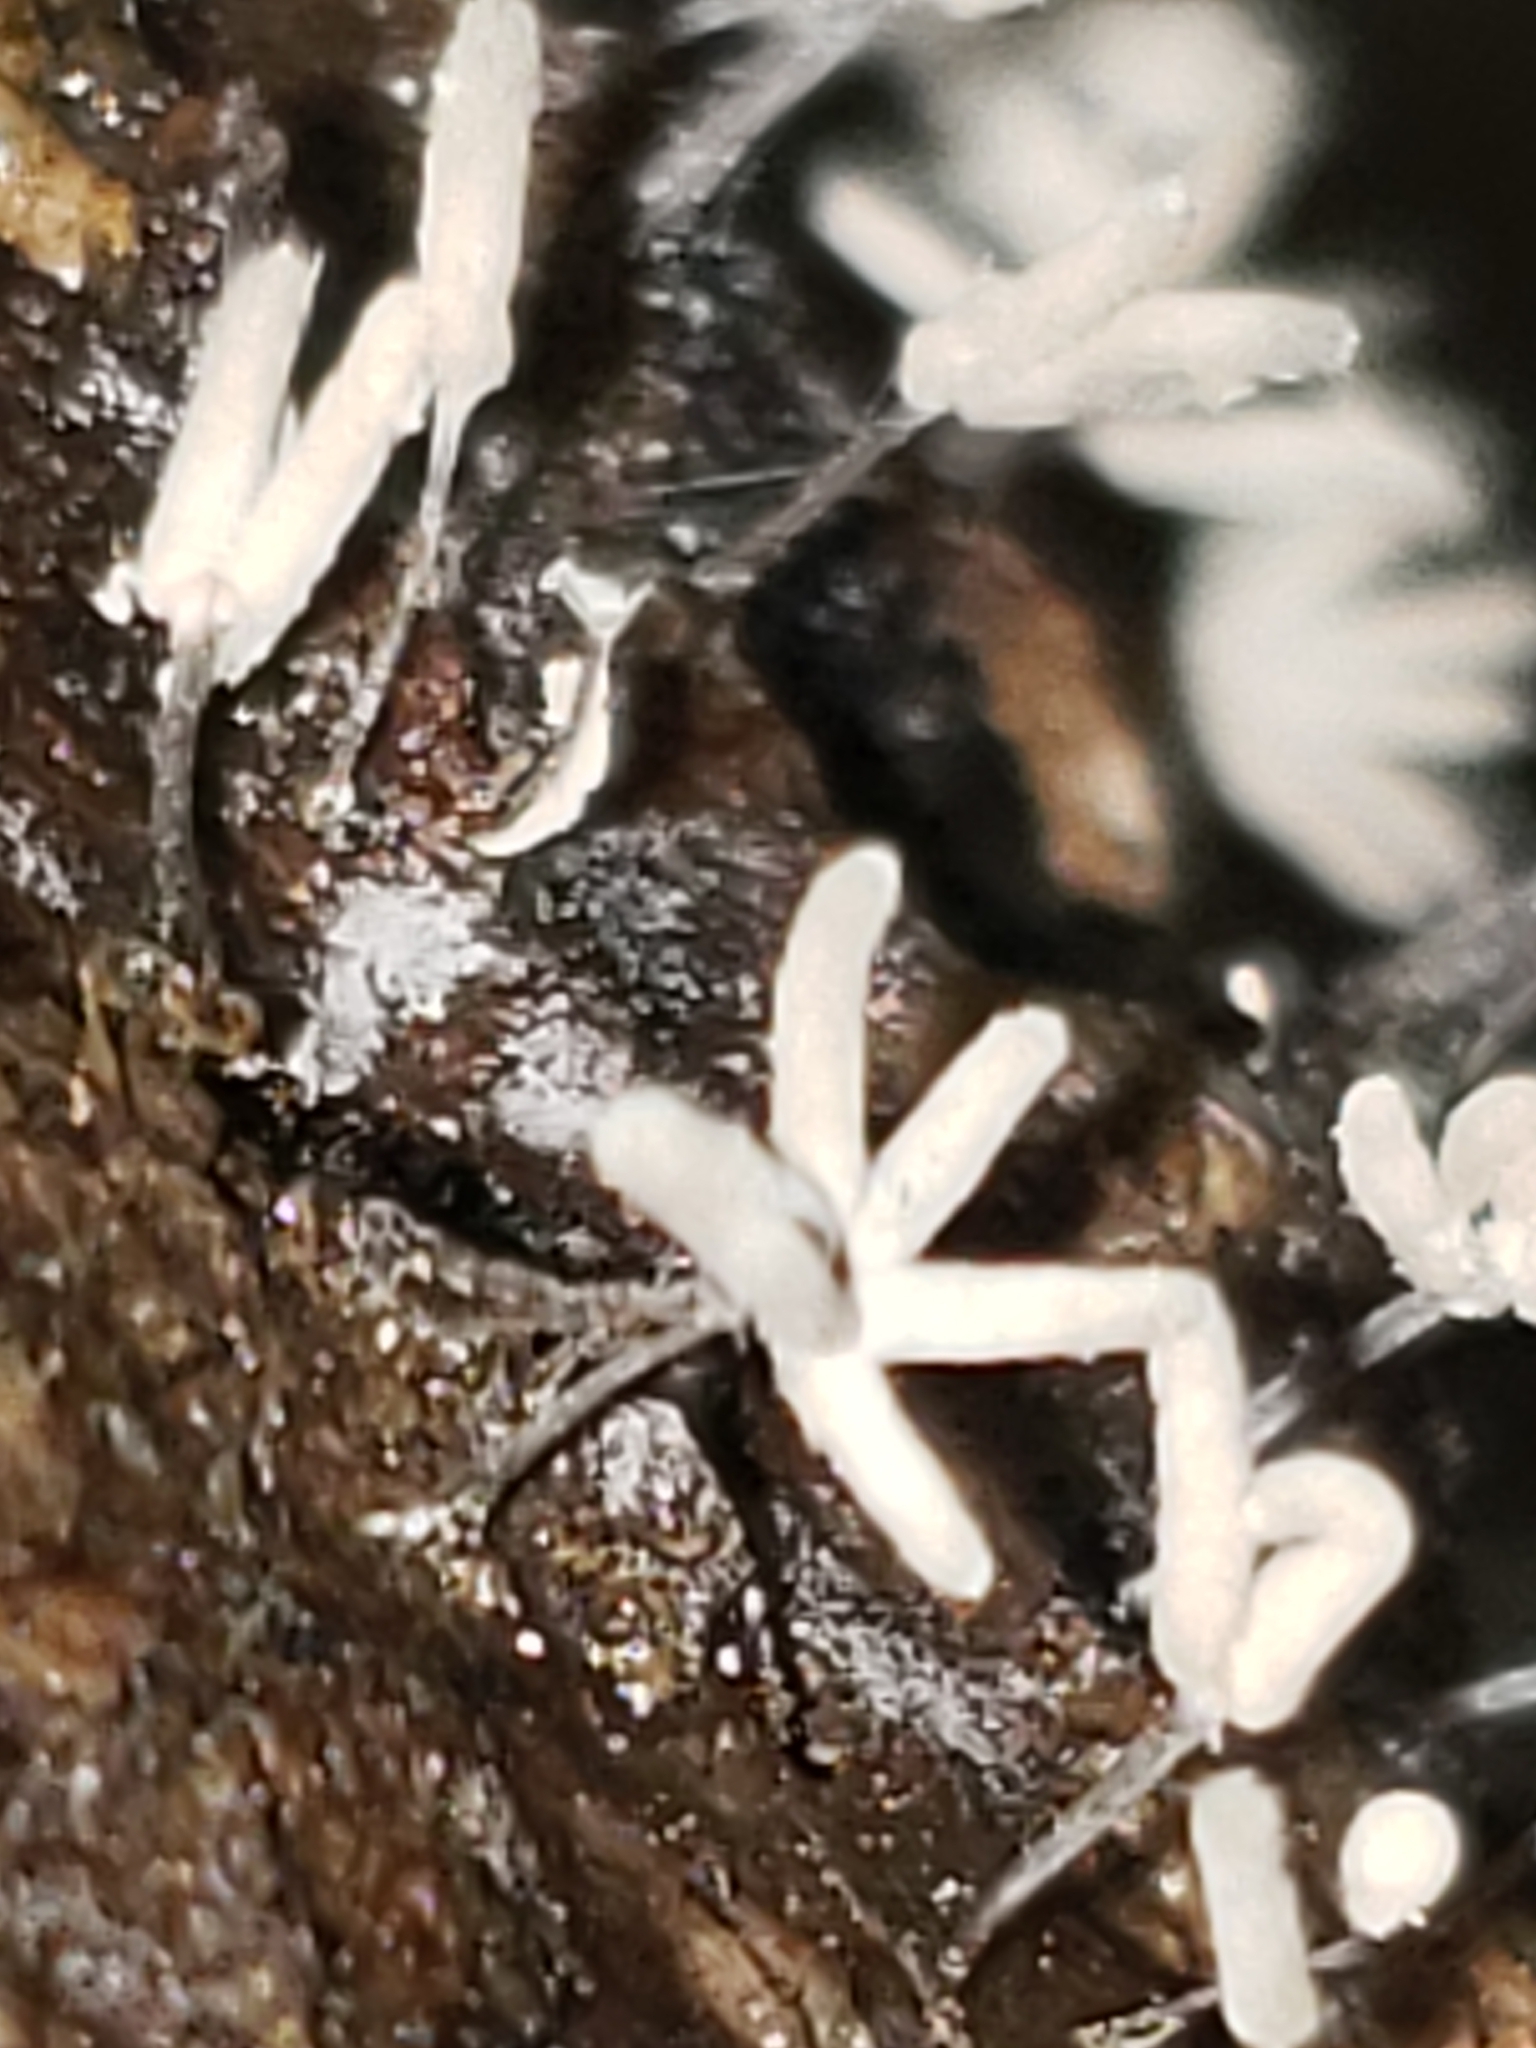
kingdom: Protozoa
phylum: Mycetozoa
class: Myxomycetes
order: Trichiales
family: Arcyriaceae
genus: Arcyria
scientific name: Arcyria cinerea
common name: White carnival candy slime mold
